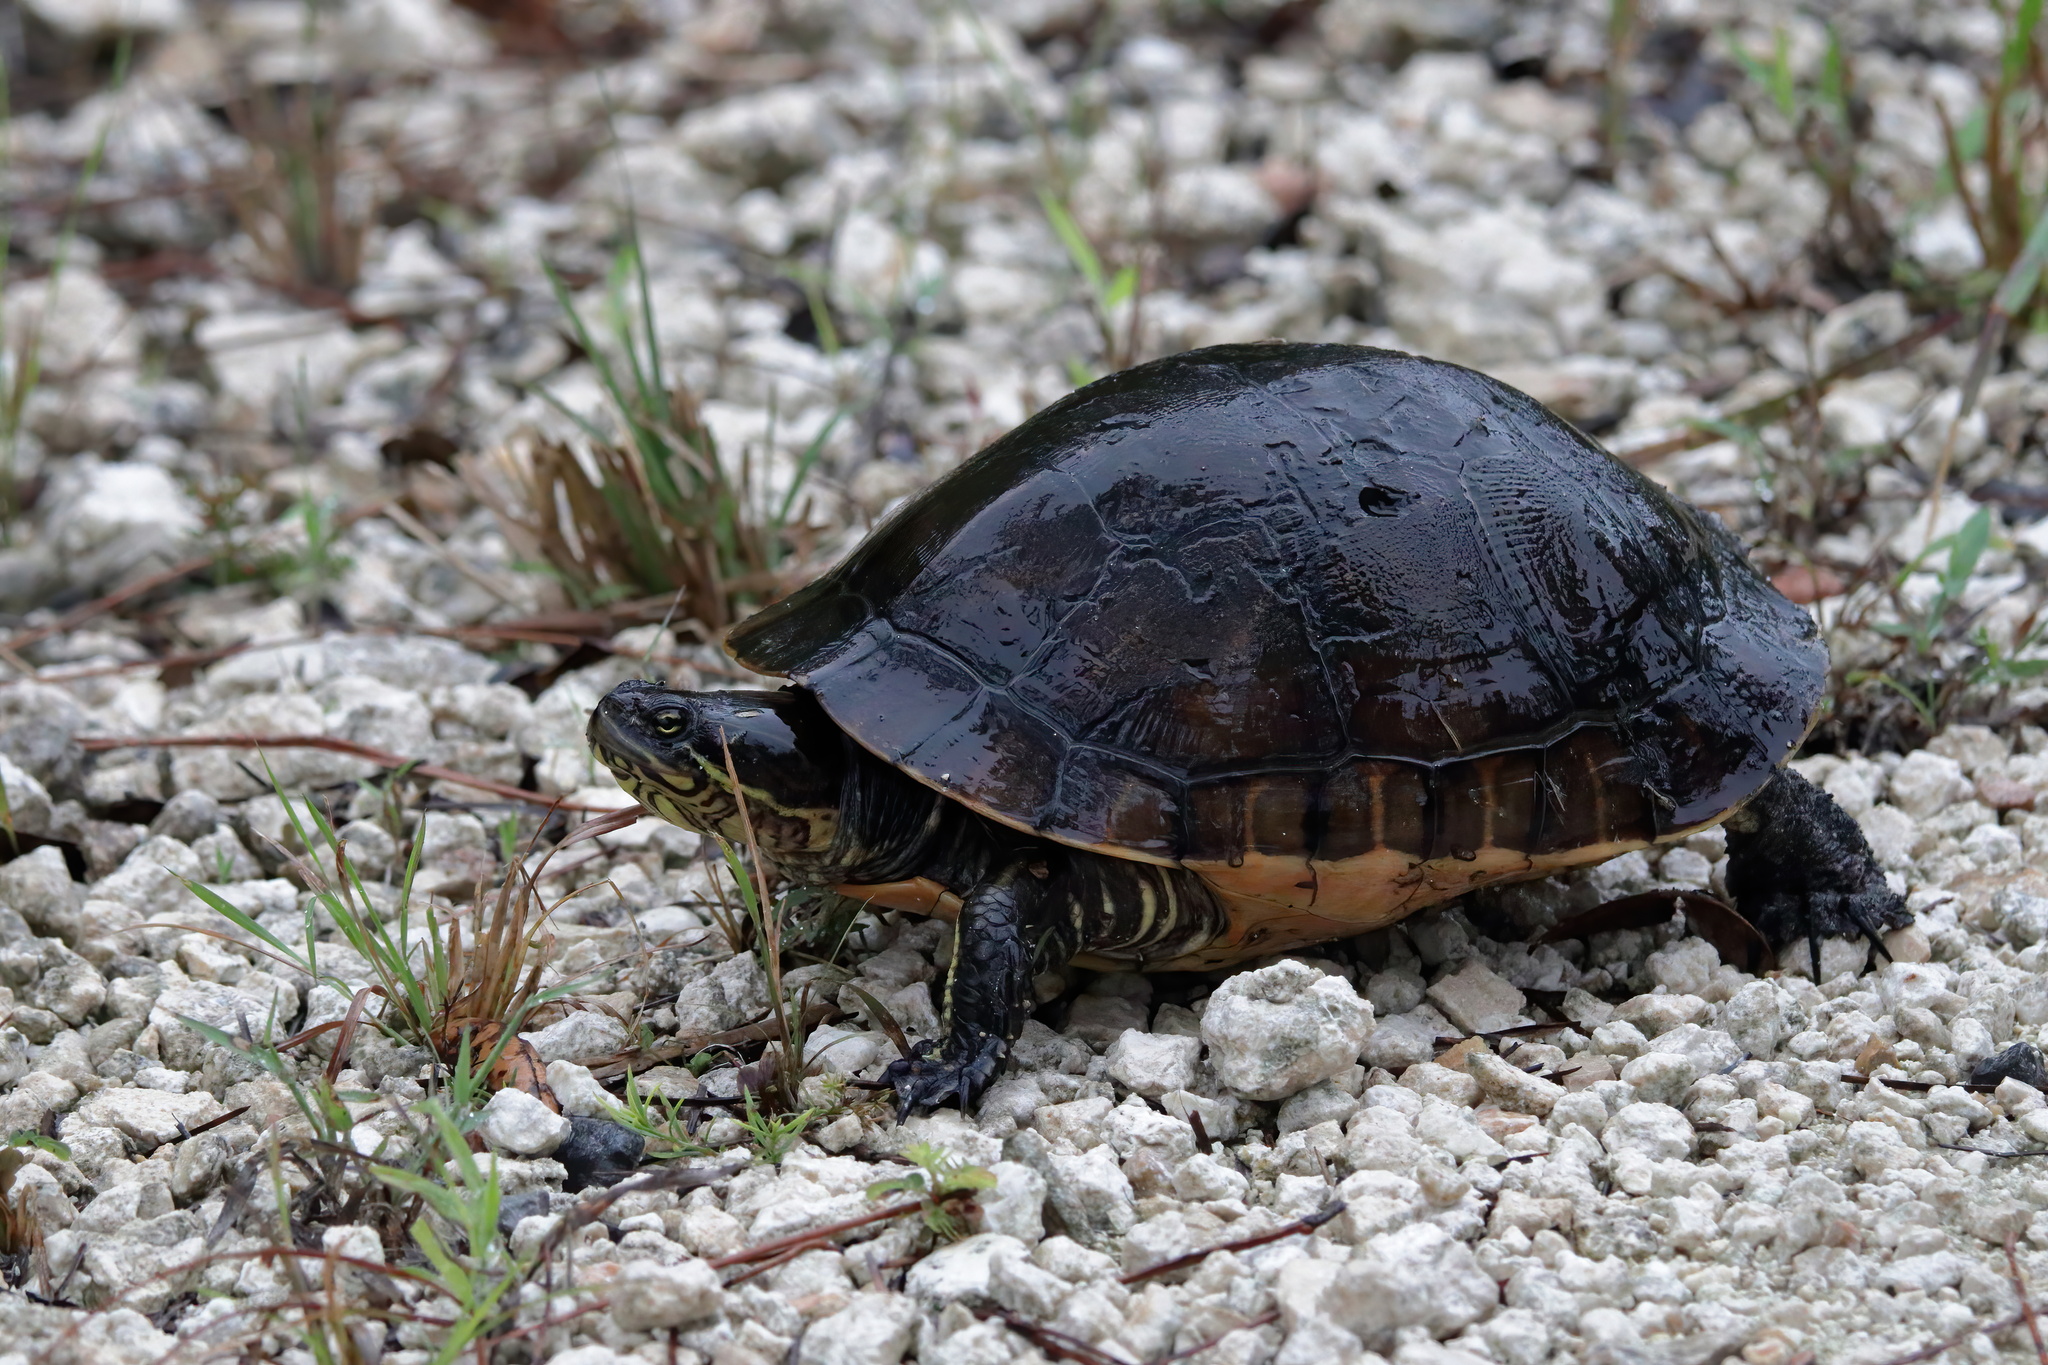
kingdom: Animalia
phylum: Chordata
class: Testudines
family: Emydidae
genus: Deirochelys
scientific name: Deirochelys reticularia
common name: Chicken turtle
